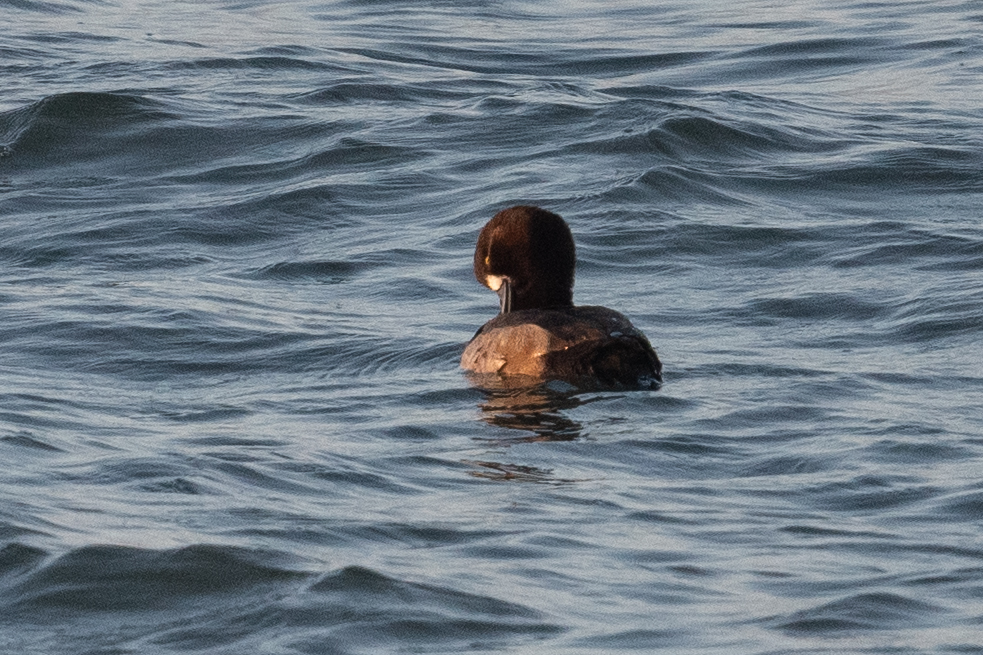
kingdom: Animalia
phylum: Chordata
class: Aves
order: Anseriformes
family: Anatidae
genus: Aythya
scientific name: Aythya marila
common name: Greater scaup
